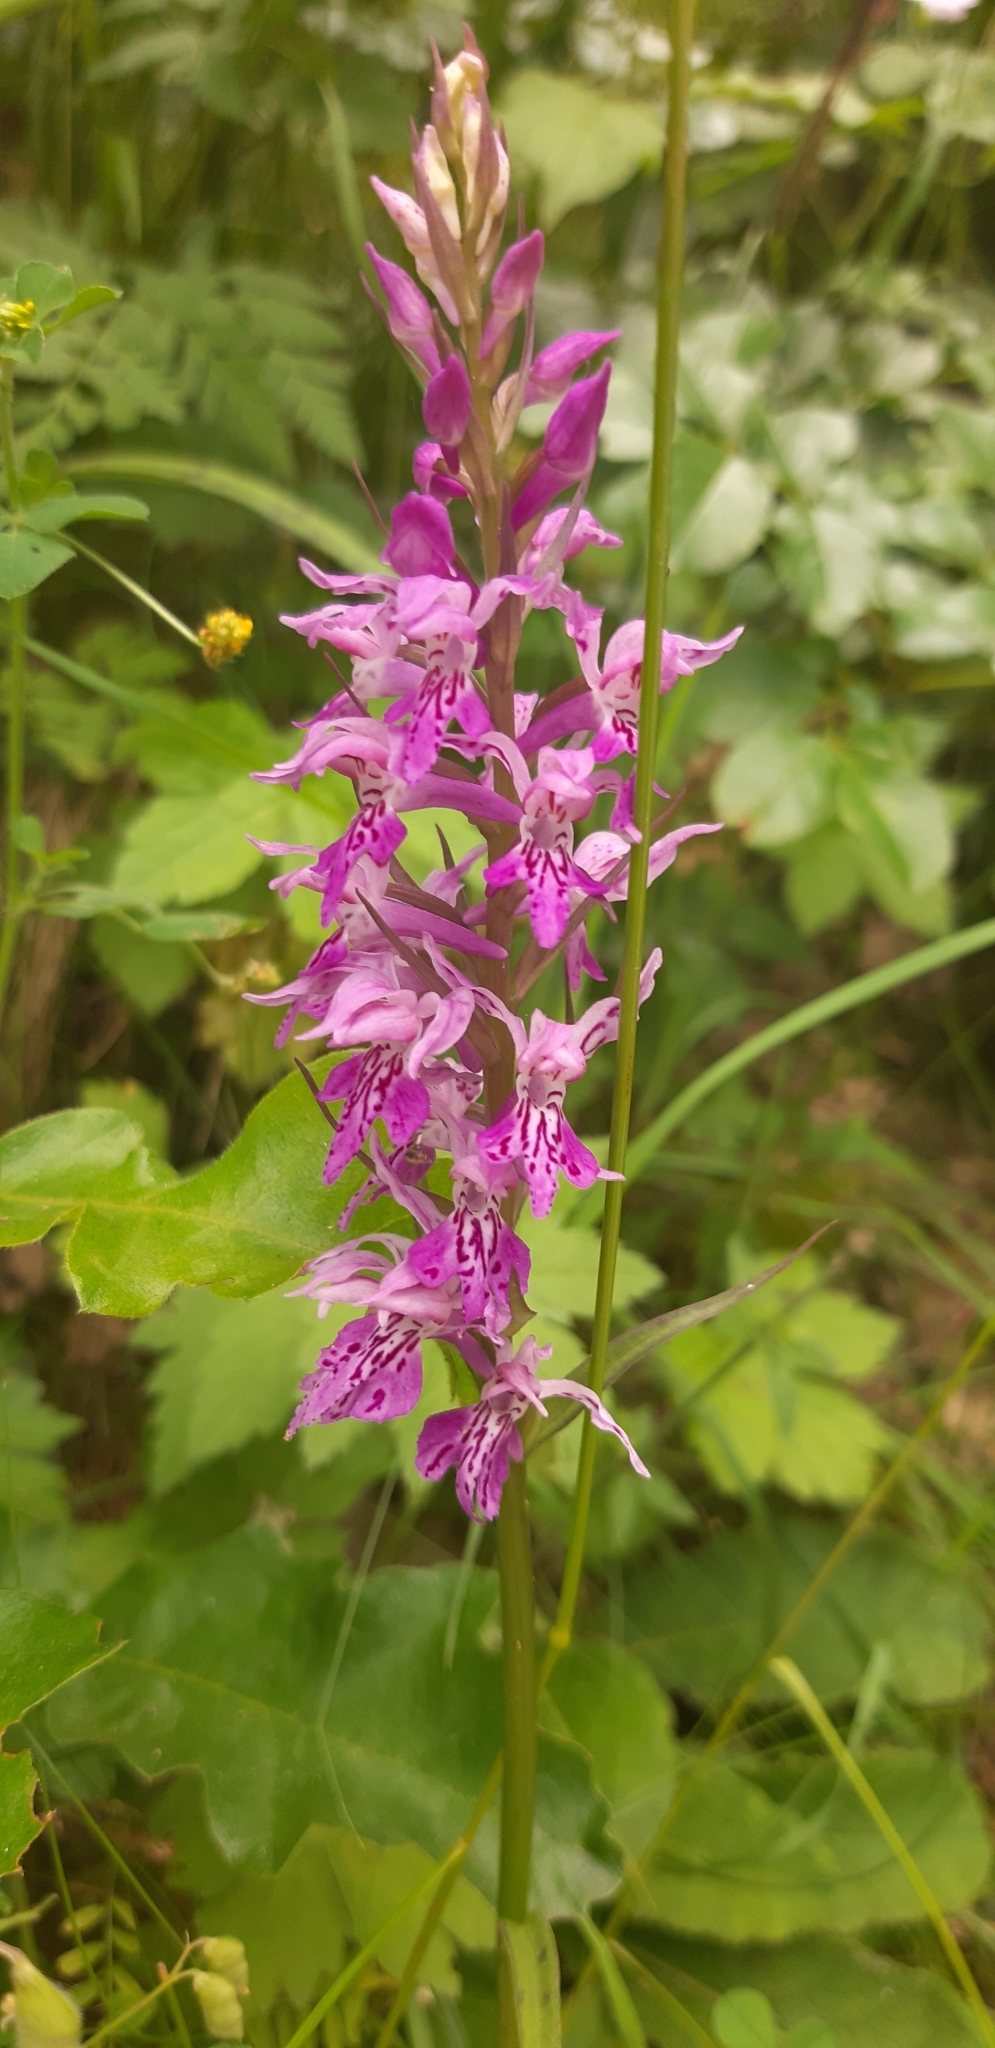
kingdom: Plantae
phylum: Tracheophyta
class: Liliopsida
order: Asparagales
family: Orchidaceae
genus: Dactylorhiza
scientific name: Dactylorhiza maculata
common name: Heath spotted-orchid
